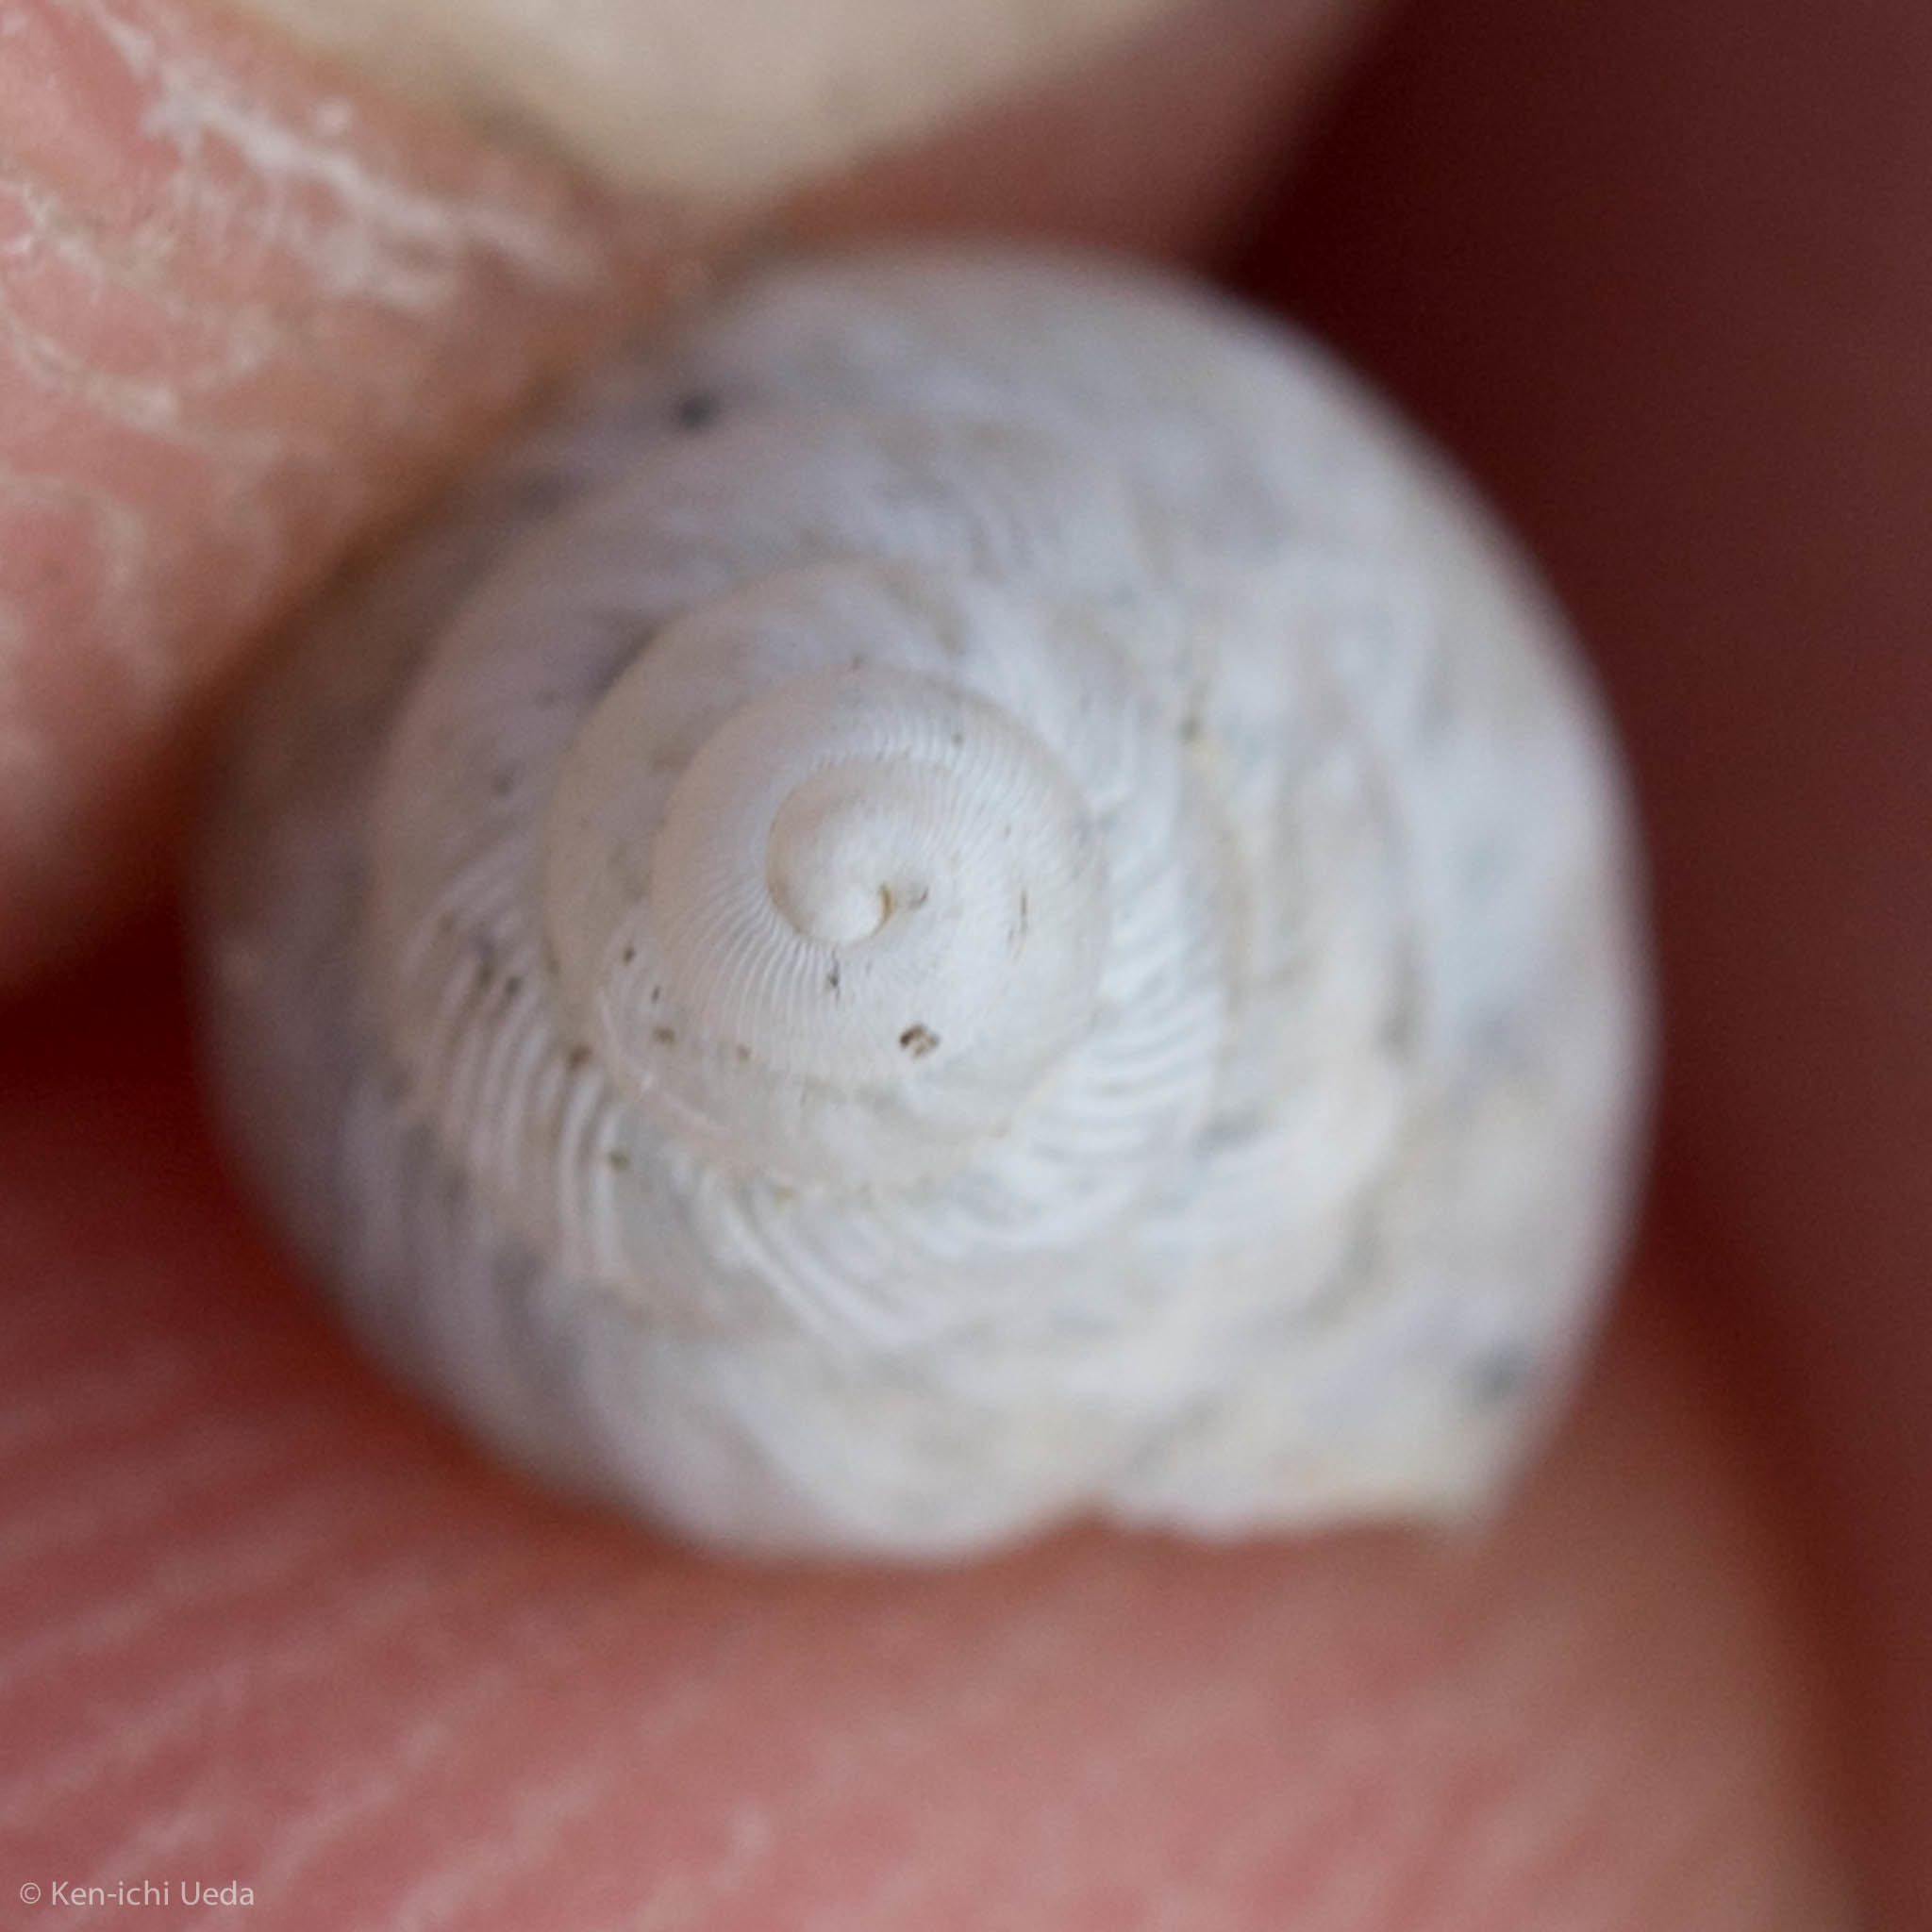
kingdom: Animalia
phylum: Mollusca
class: Gastropoda
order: Stylommatophora
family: Bulimulidae
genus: Rabdotus
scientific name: Rabdotus dealbatus
